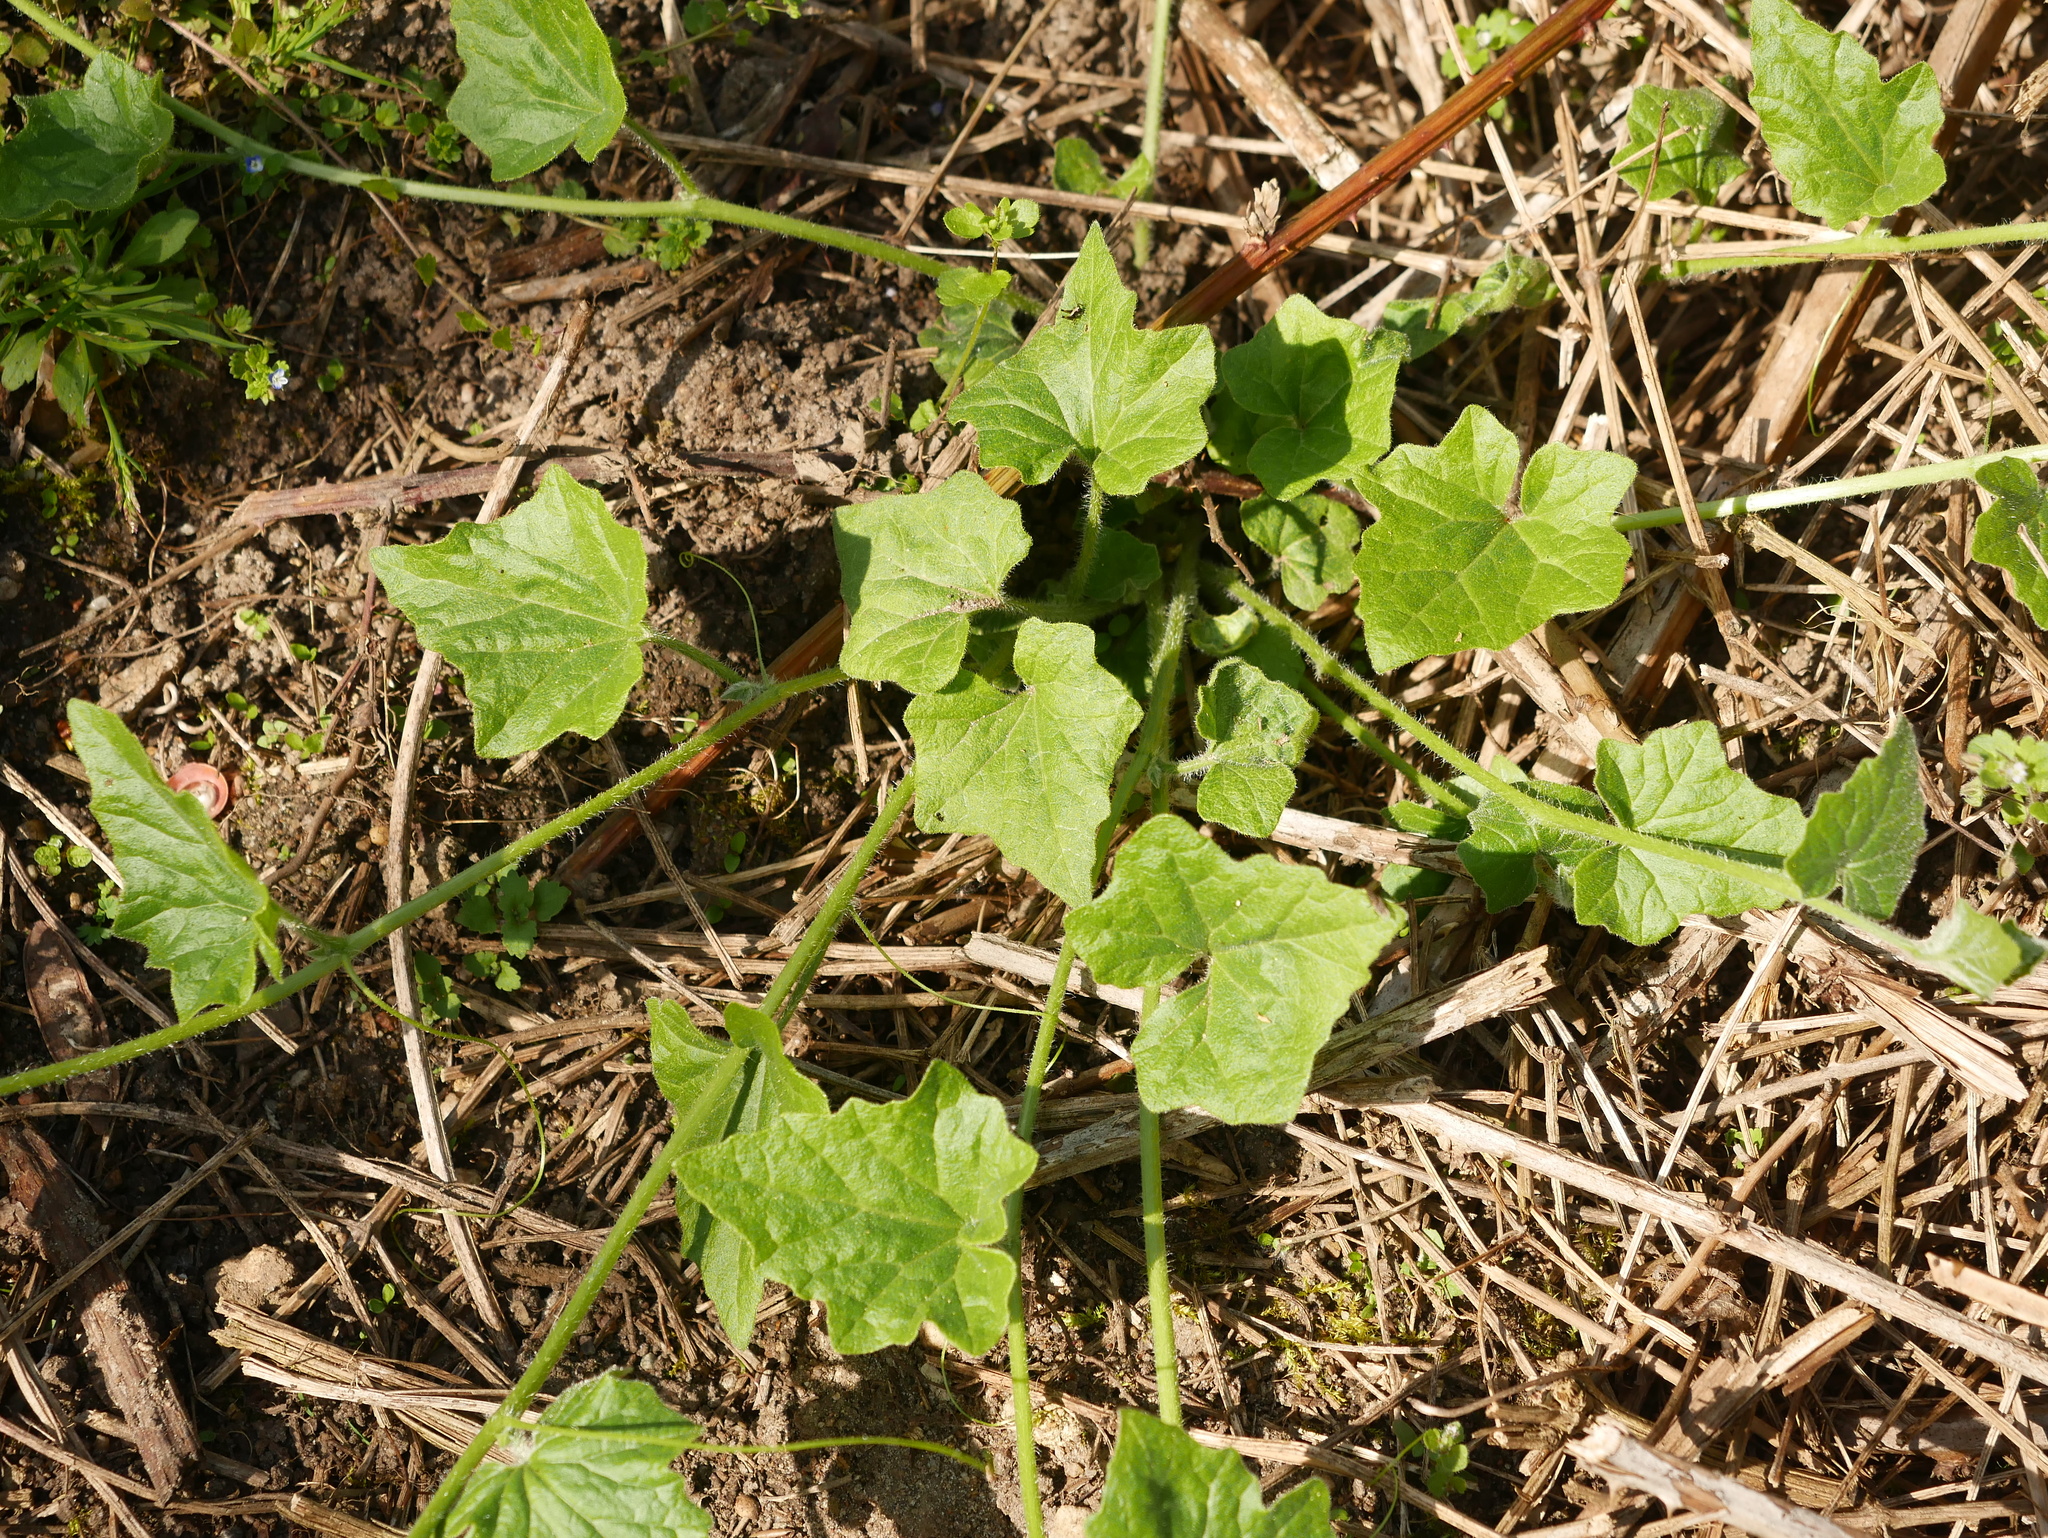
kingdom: Plantae
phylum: Tracheophyta
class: Magnoliopsida
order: Cucurbitales
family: Cucurbitaceae
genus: Bryonia
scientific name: Bryonia cretica
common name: Cretan bryony
